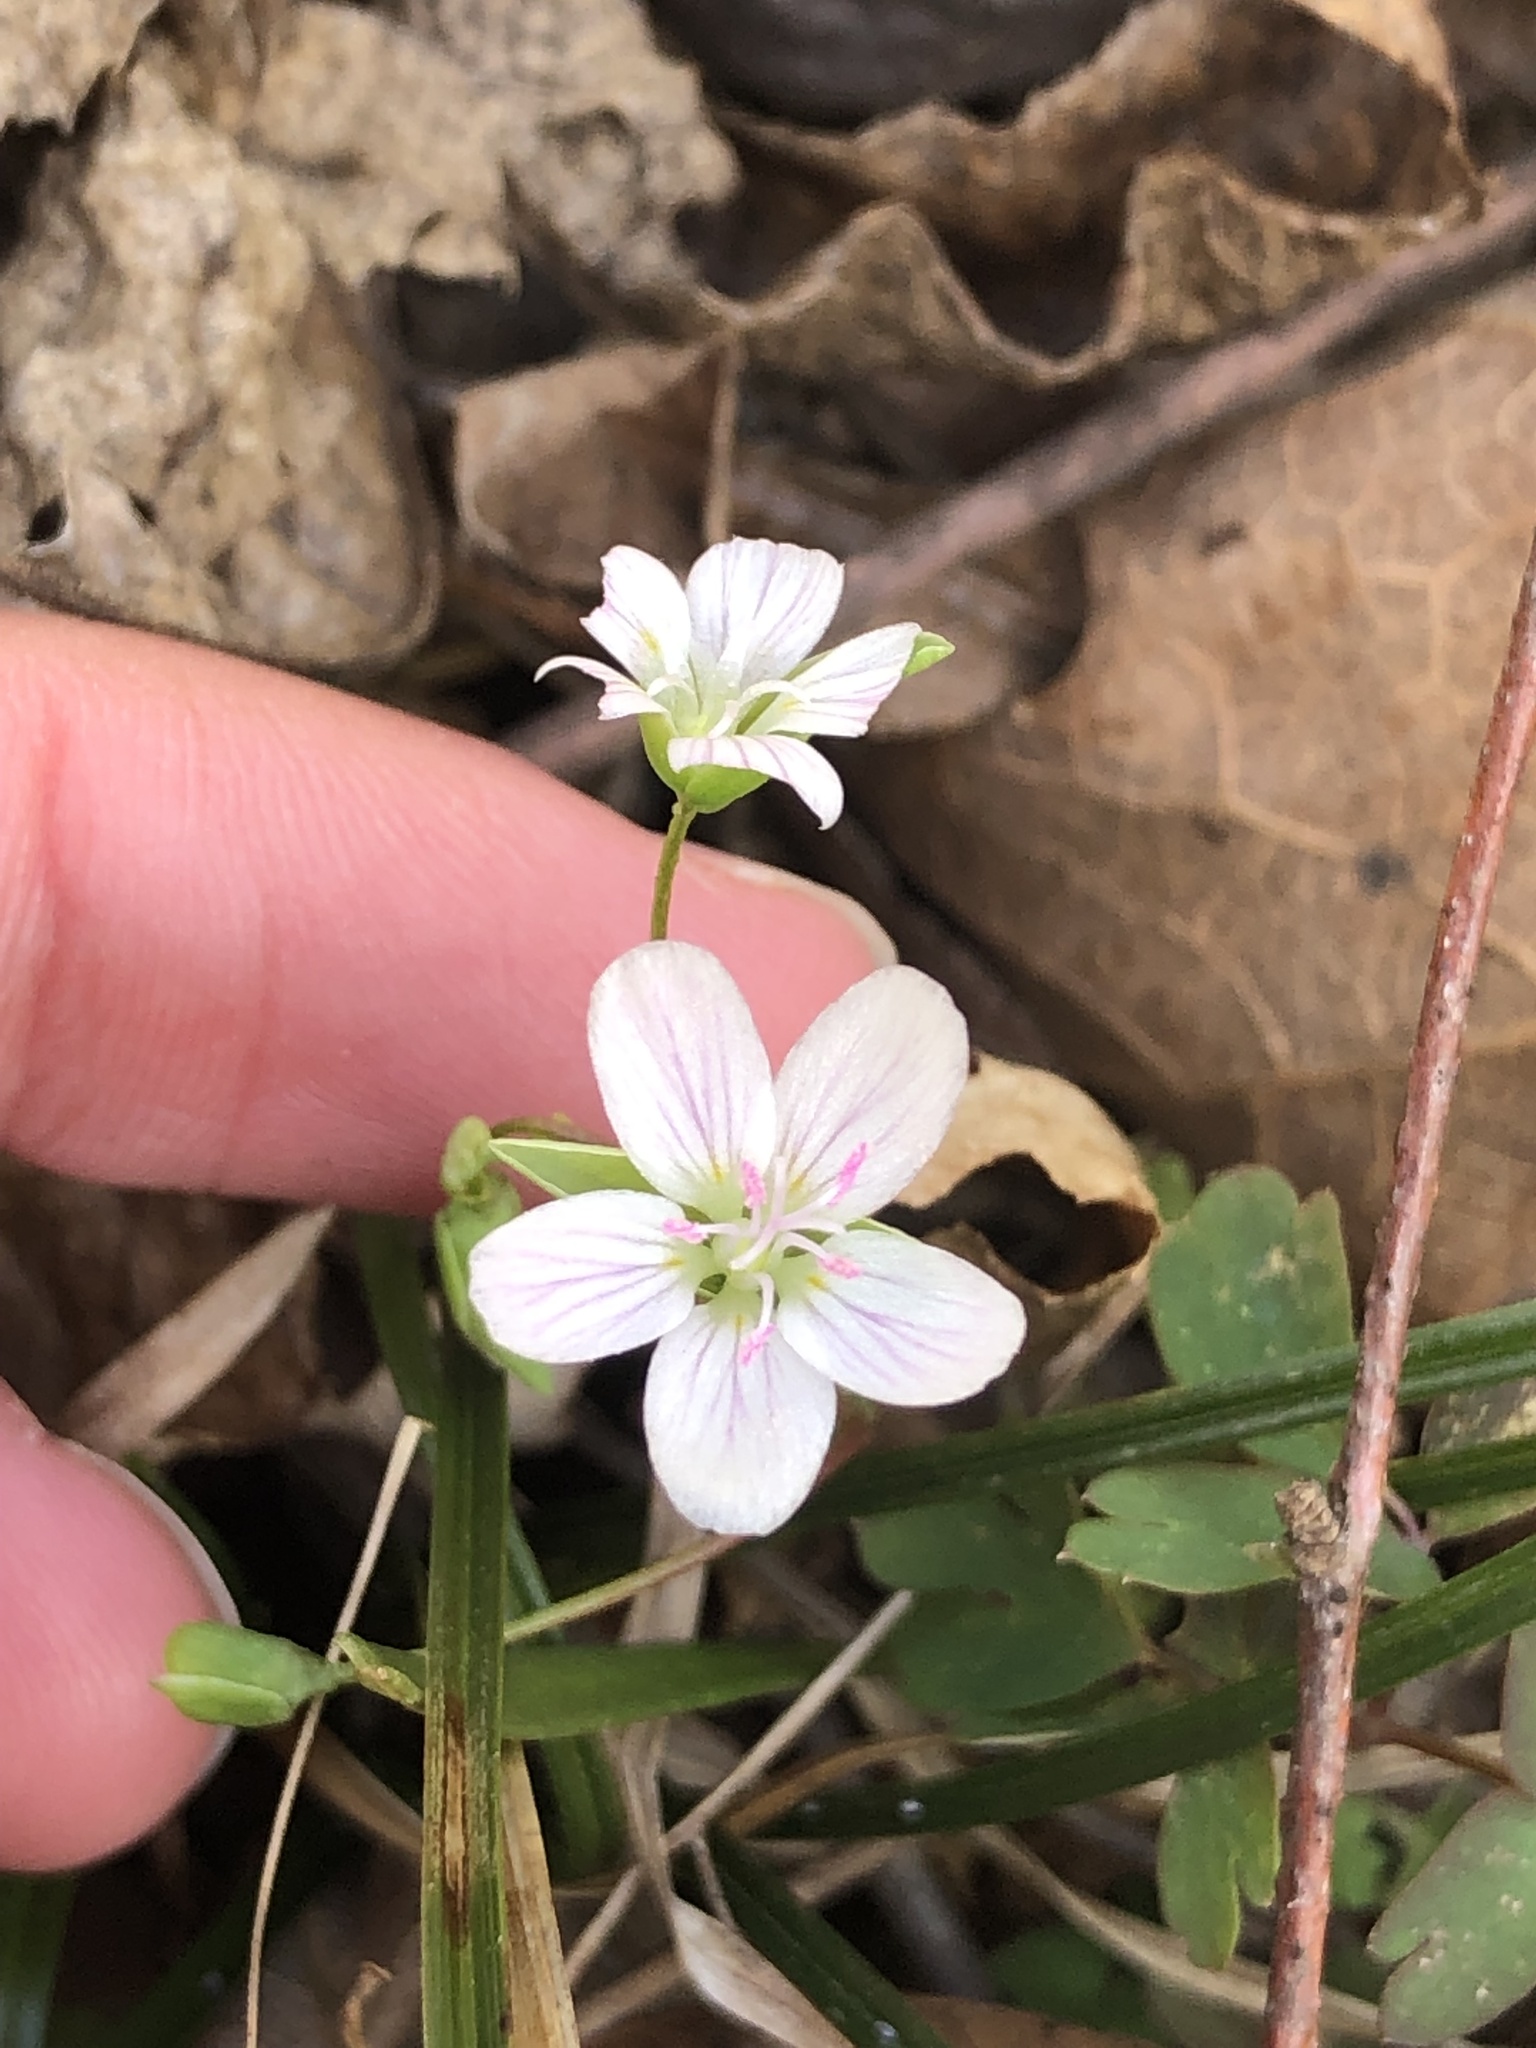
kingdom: Plantae
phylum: Tracheophyta
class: Magnoliopsida
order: Caryophyllales
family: Montiaceae
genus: Claytonia
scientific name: Claytonia virginica
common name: Virginia springbeauty
